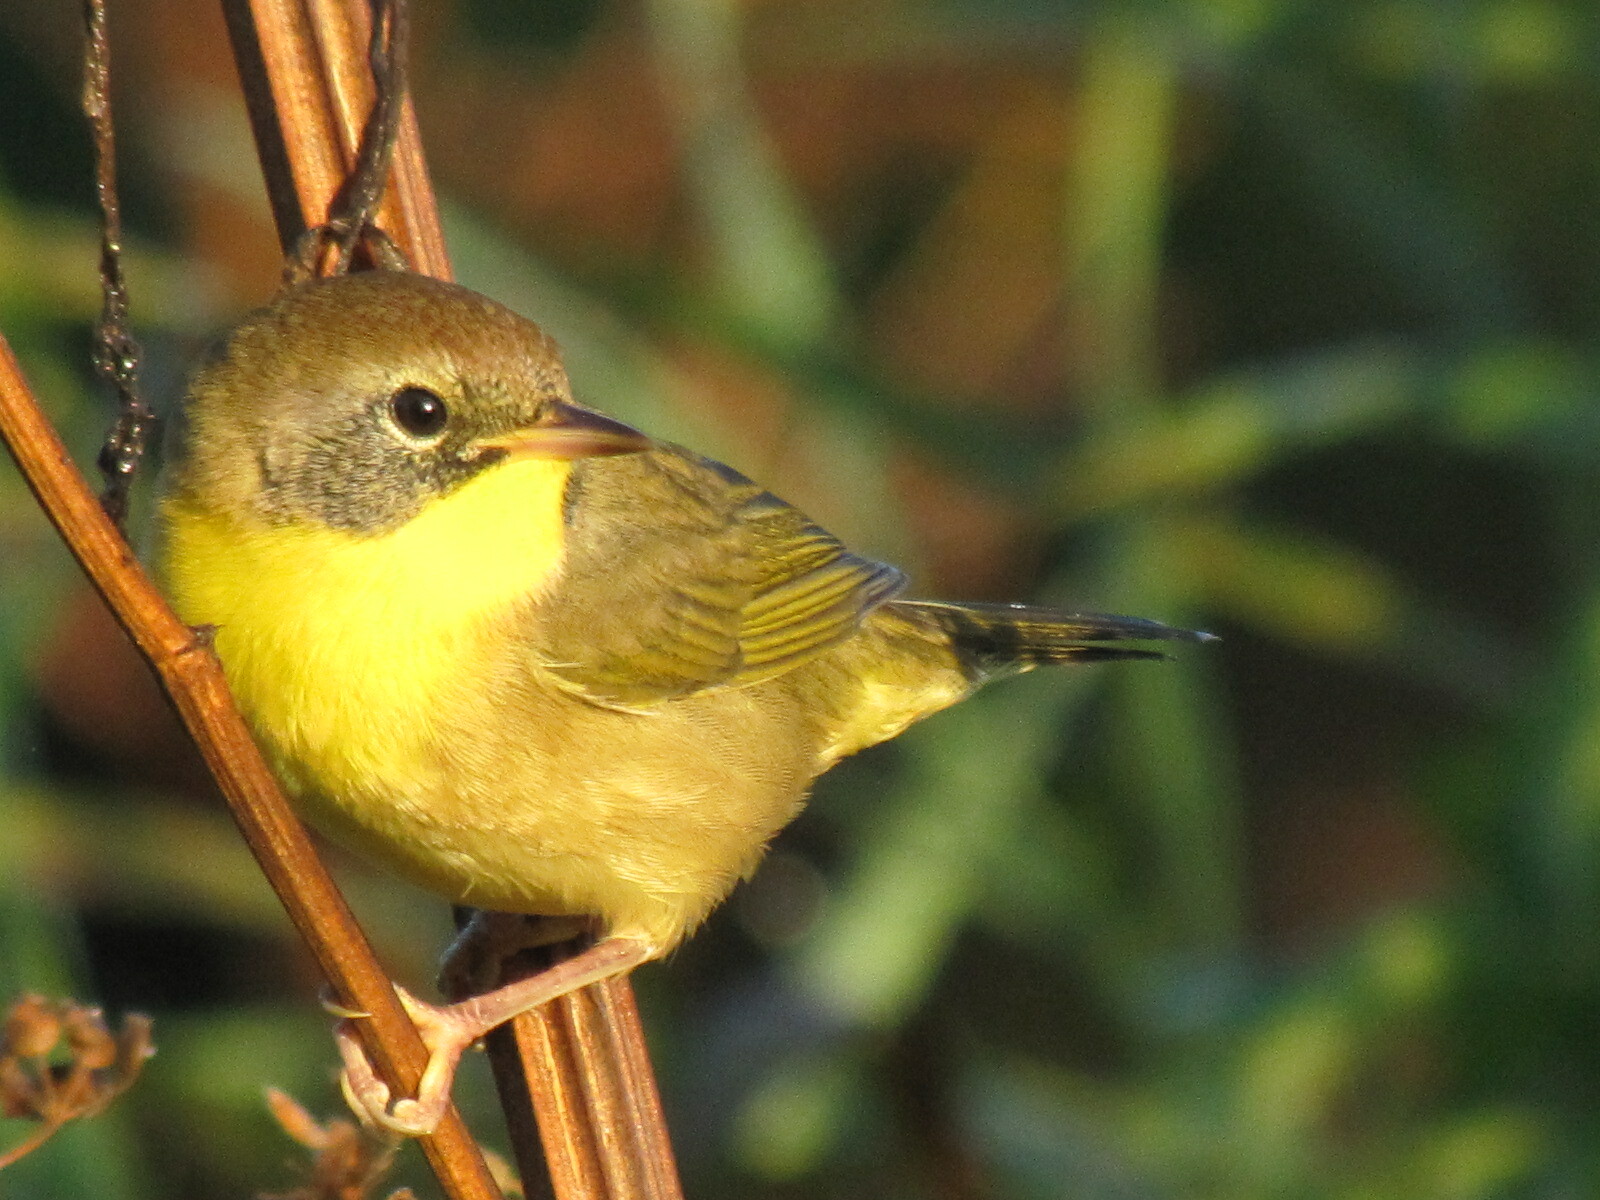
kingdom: Animalia
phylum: Chordata
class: Aves
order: Passeriformes
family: Parulidae
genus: Geothlypis
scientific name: Geothlypis trichas
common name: Common yellowthroat
